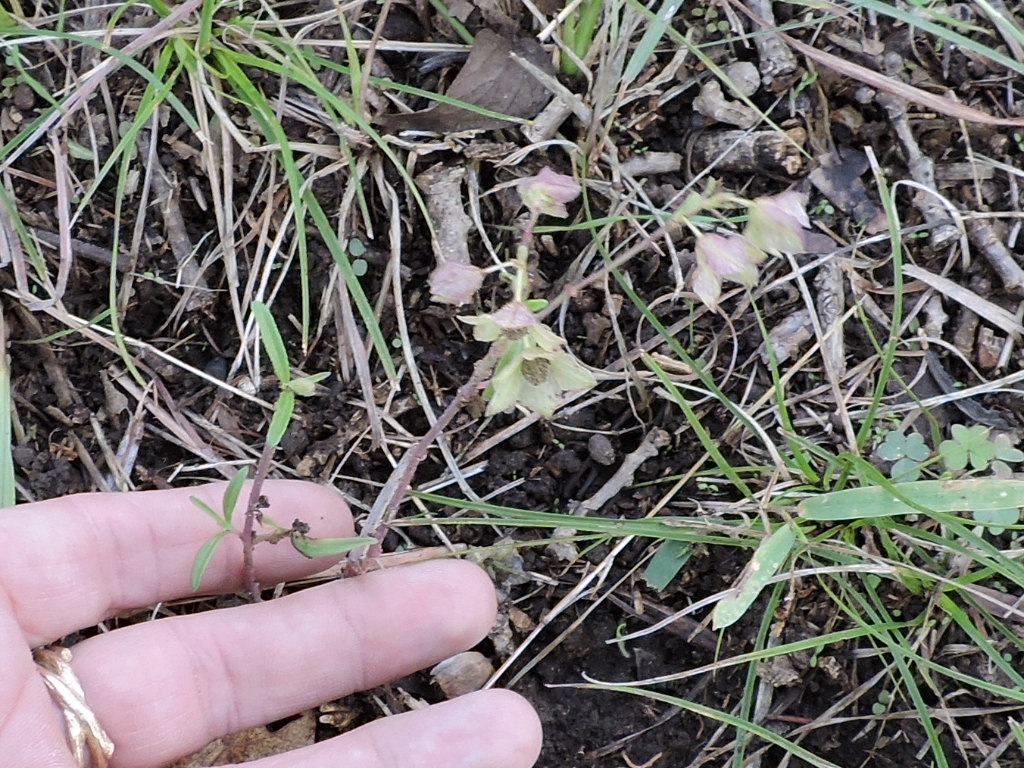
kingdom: Plantae
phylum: Tracheophyta
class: Magnoliopsida
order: Caryophyllales
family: Nyctaginaceae
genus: Mirabilis
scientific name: Mirabilis albida
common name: Hairy four-o'clock
